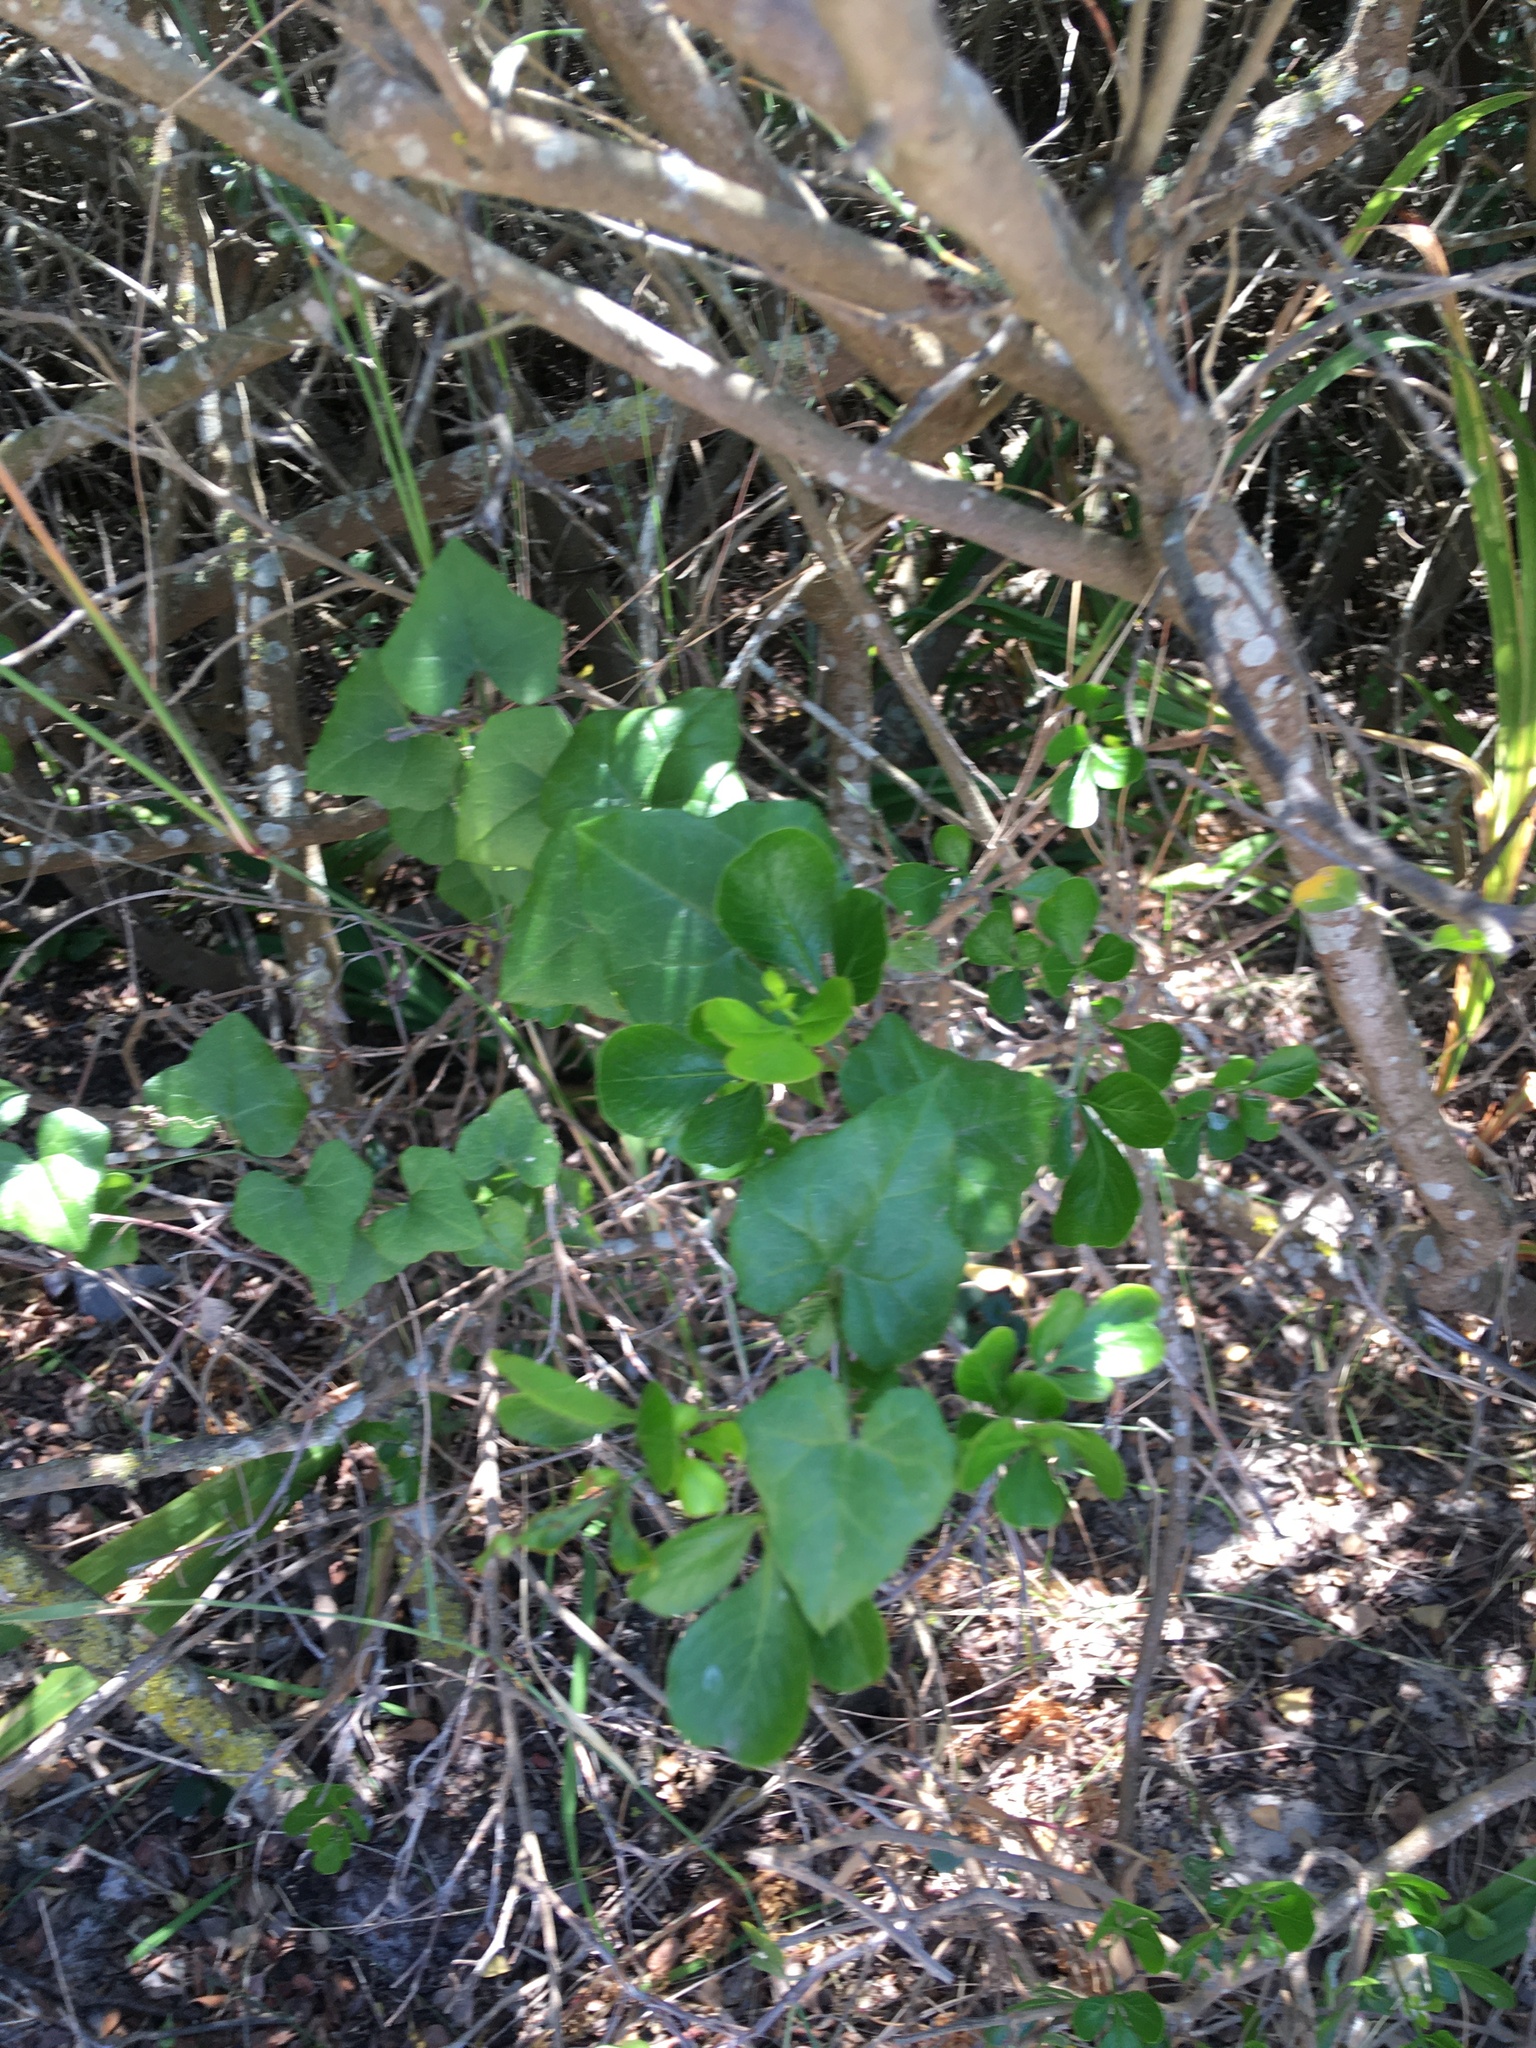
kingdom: Plantae
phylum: Tracheophyta
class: Magnoliopsida
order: Cucurbitales
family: Cucurbitaceae
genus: Kedrostis
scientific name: Kedrostis nana
